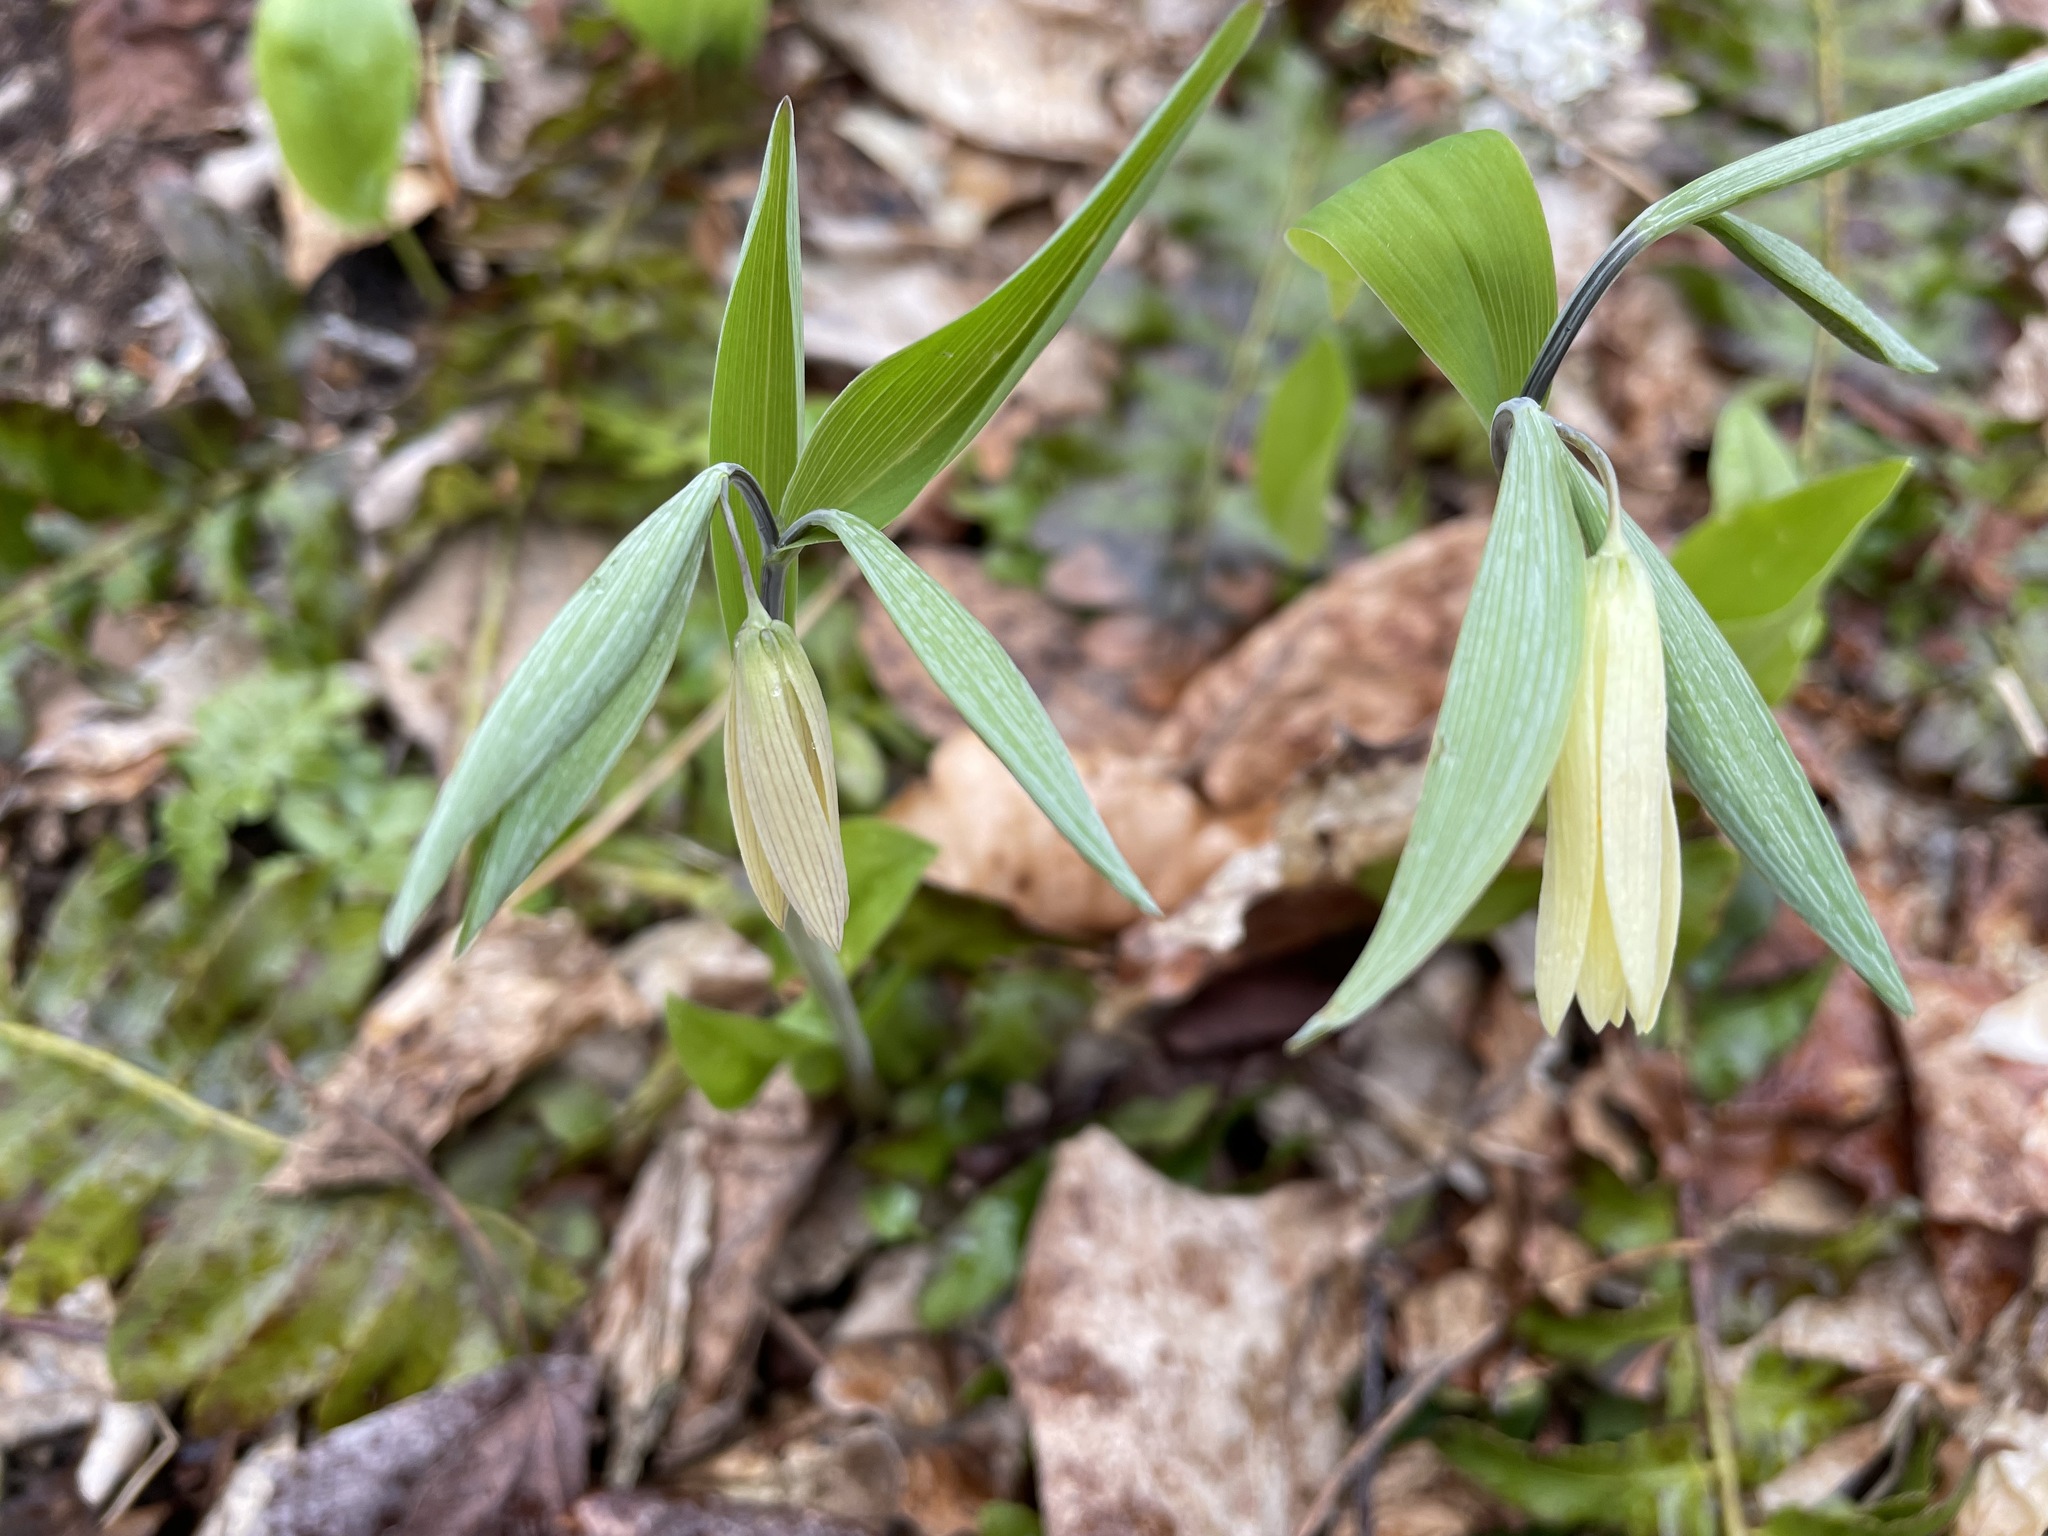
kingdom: Plantae
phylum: Tracheophyta
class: Liliopsida
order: Liliales
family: Colchicaceae
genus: Uvularia
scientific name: Uvularia sessilifolia
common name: Straw-lily
